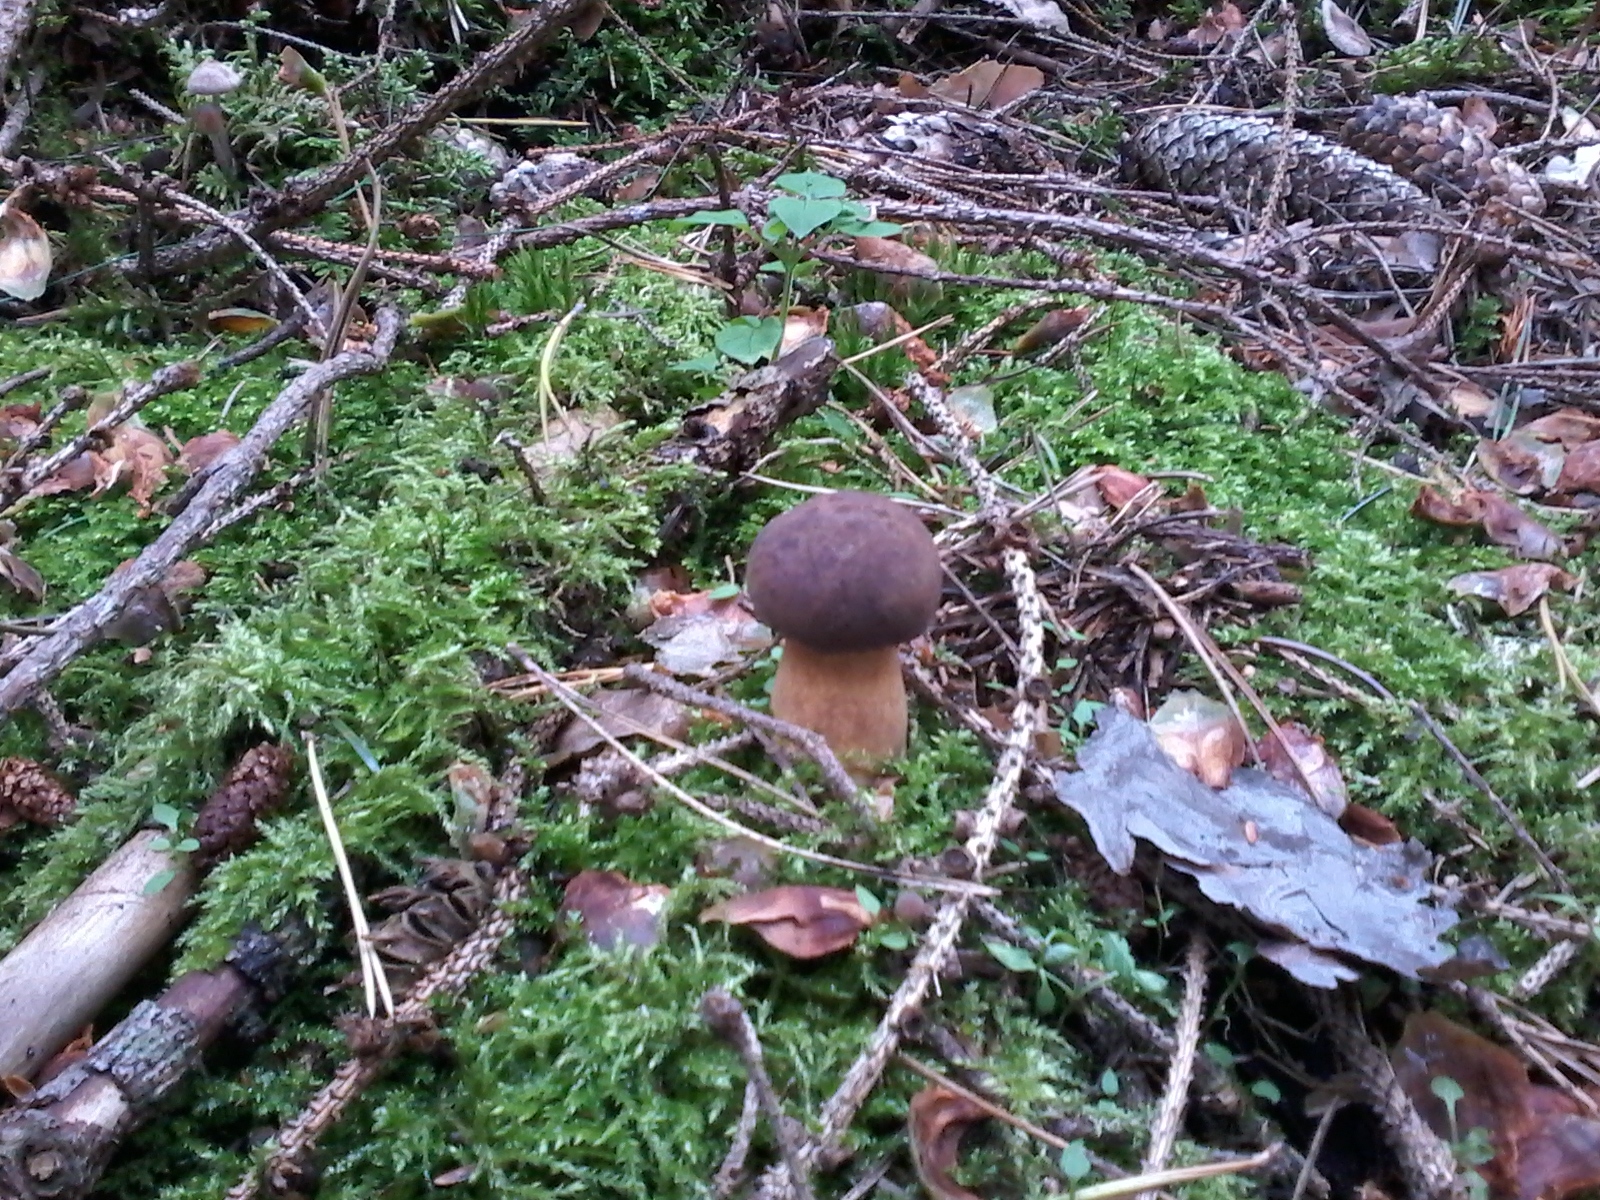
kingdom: Fungi
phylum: Basidiomycota
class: Agaricomycetes
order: Boletales
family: Boletaceae
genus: Imleria
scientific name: Imleria badia
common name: Bay bolete
